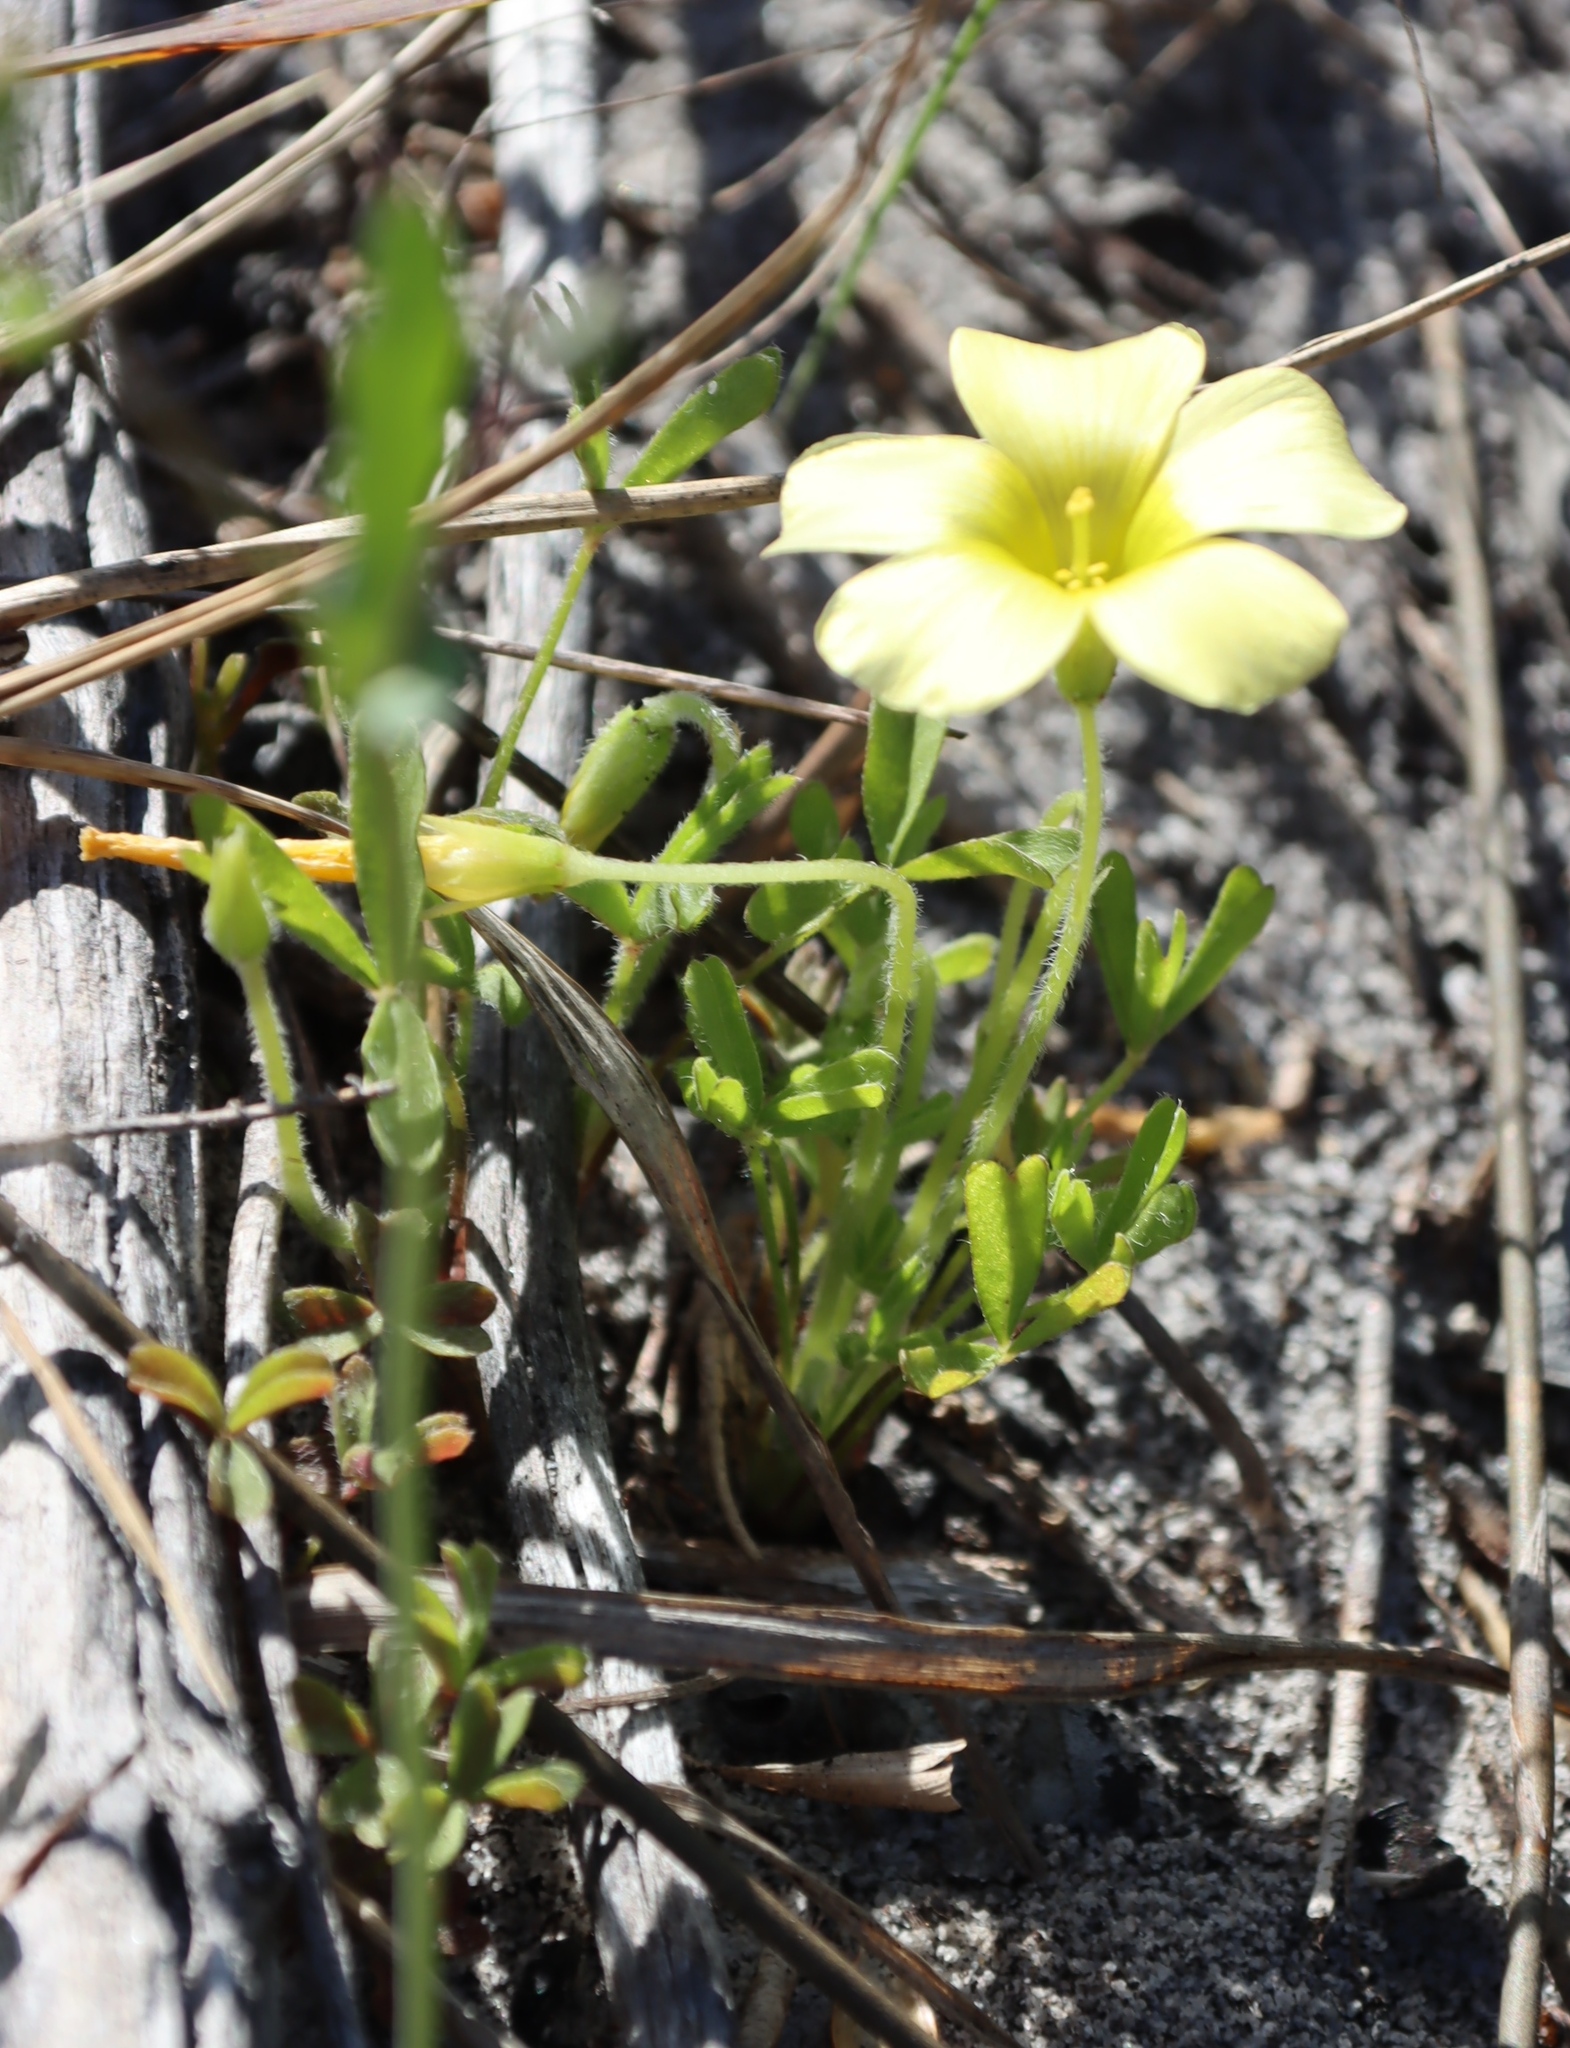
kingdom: Plantae
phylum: Tracheophyta
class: Magnoliopsida
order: Oxalidales
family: Oxalidaceae
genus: Oxalis
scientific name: Oxalis obtusa
